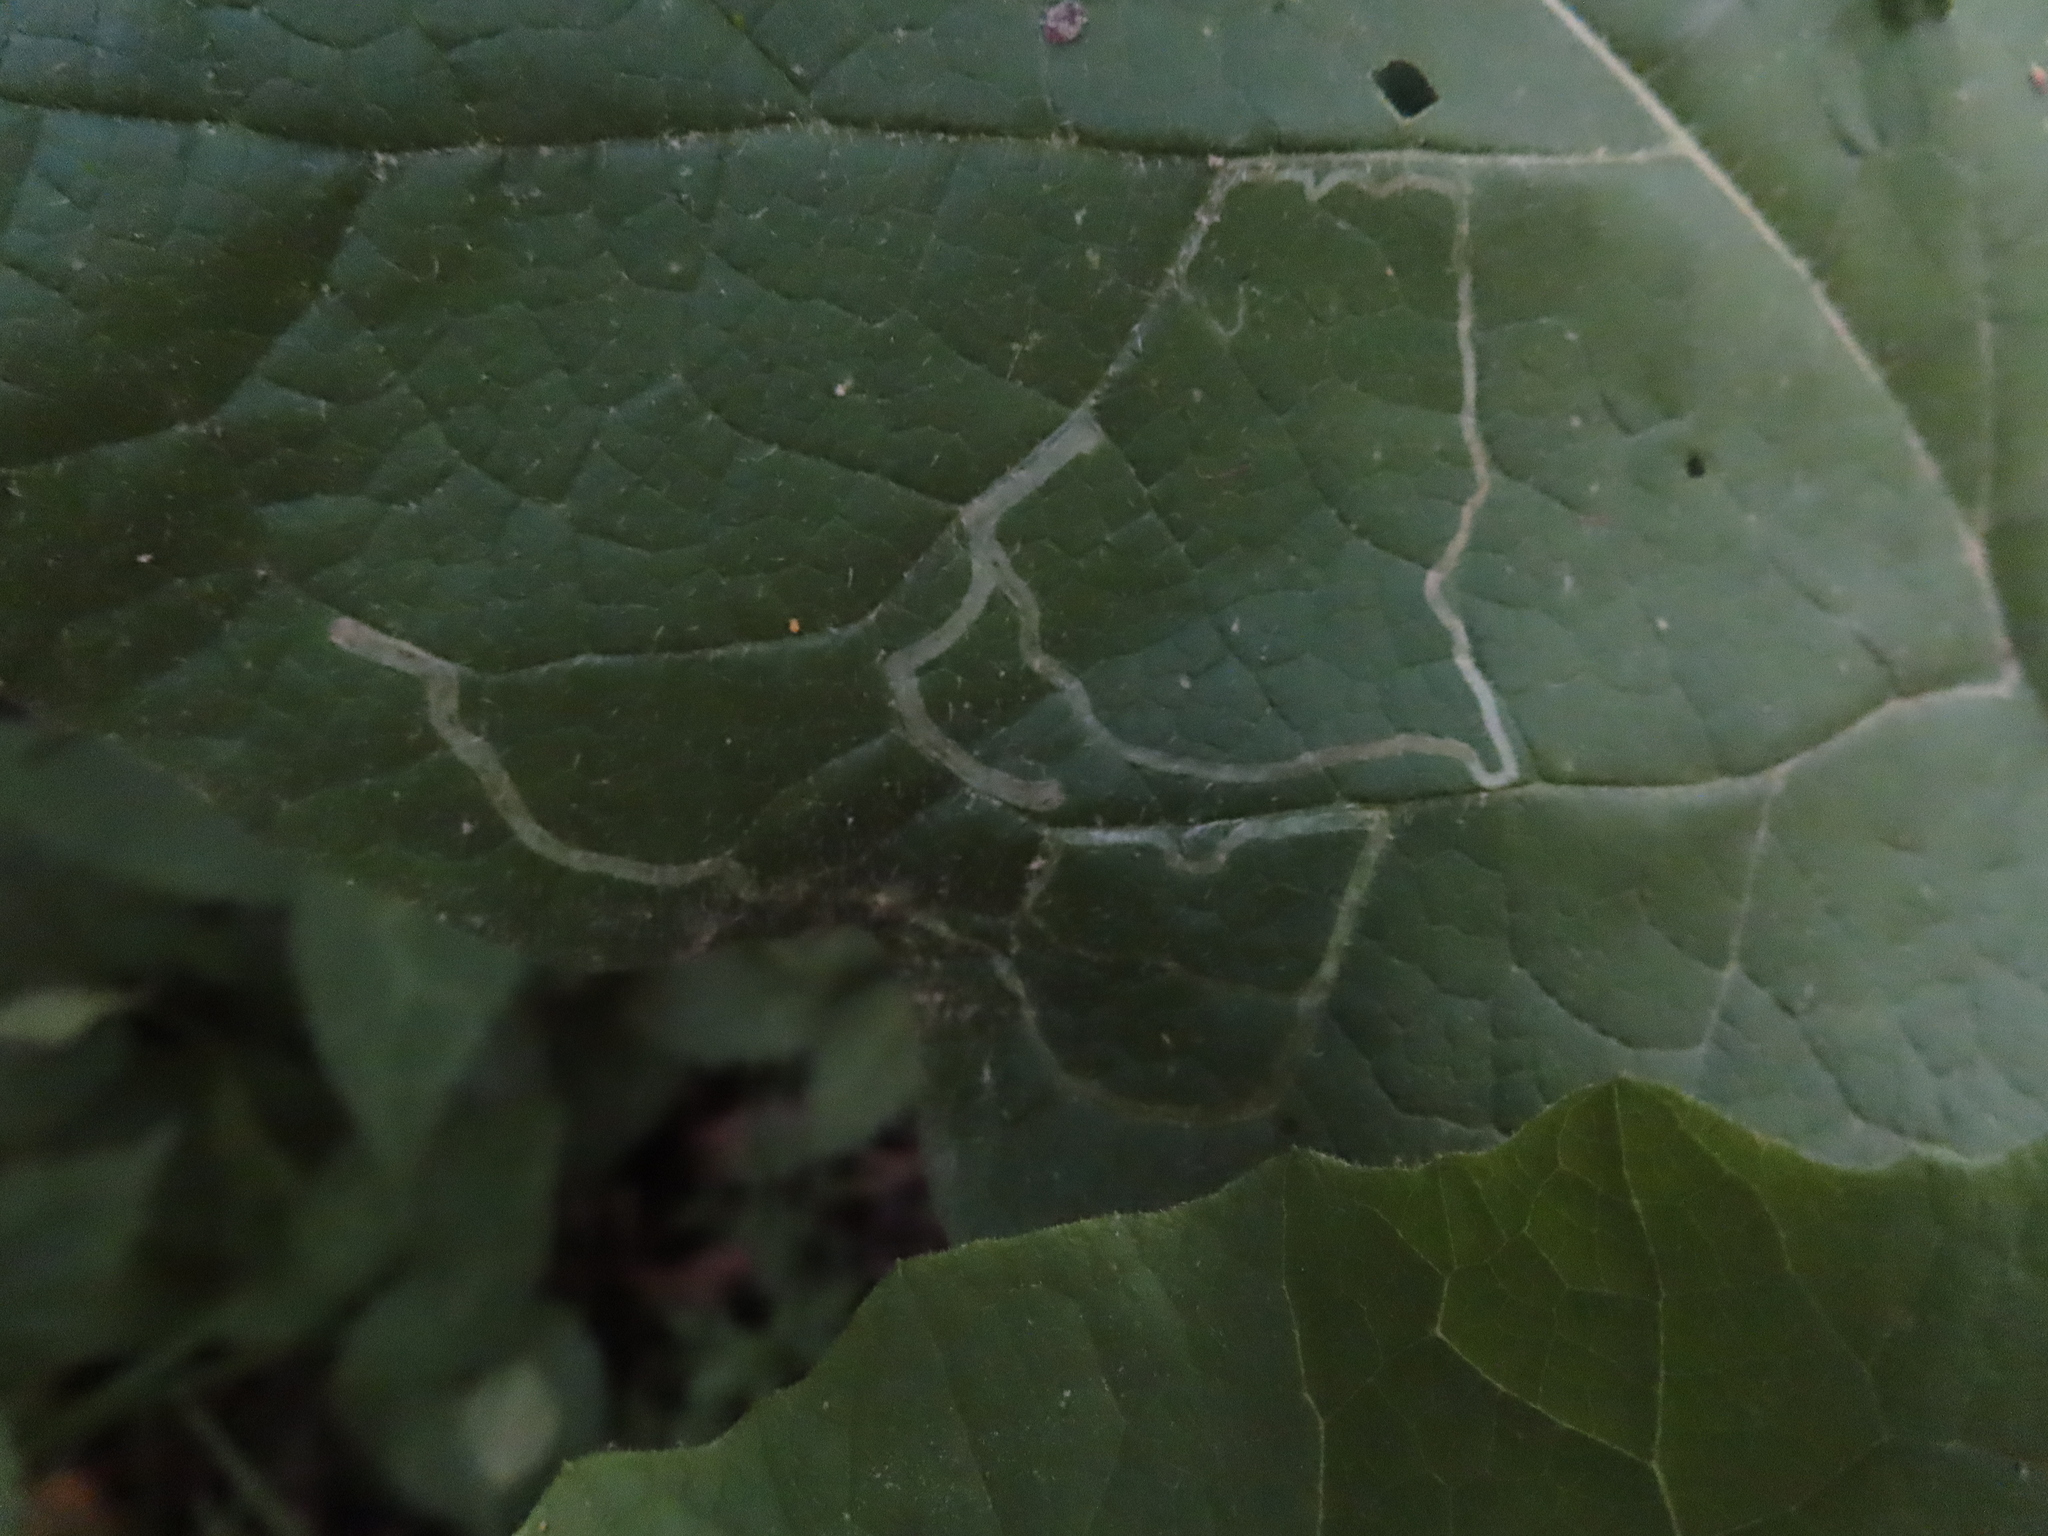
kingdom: Animalia
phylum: Arthropoda
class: Insecta
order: Diptera
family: Agromyzidae
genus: Liriomyza
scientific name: Liriomyza arctii
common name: Burdock leafminer
